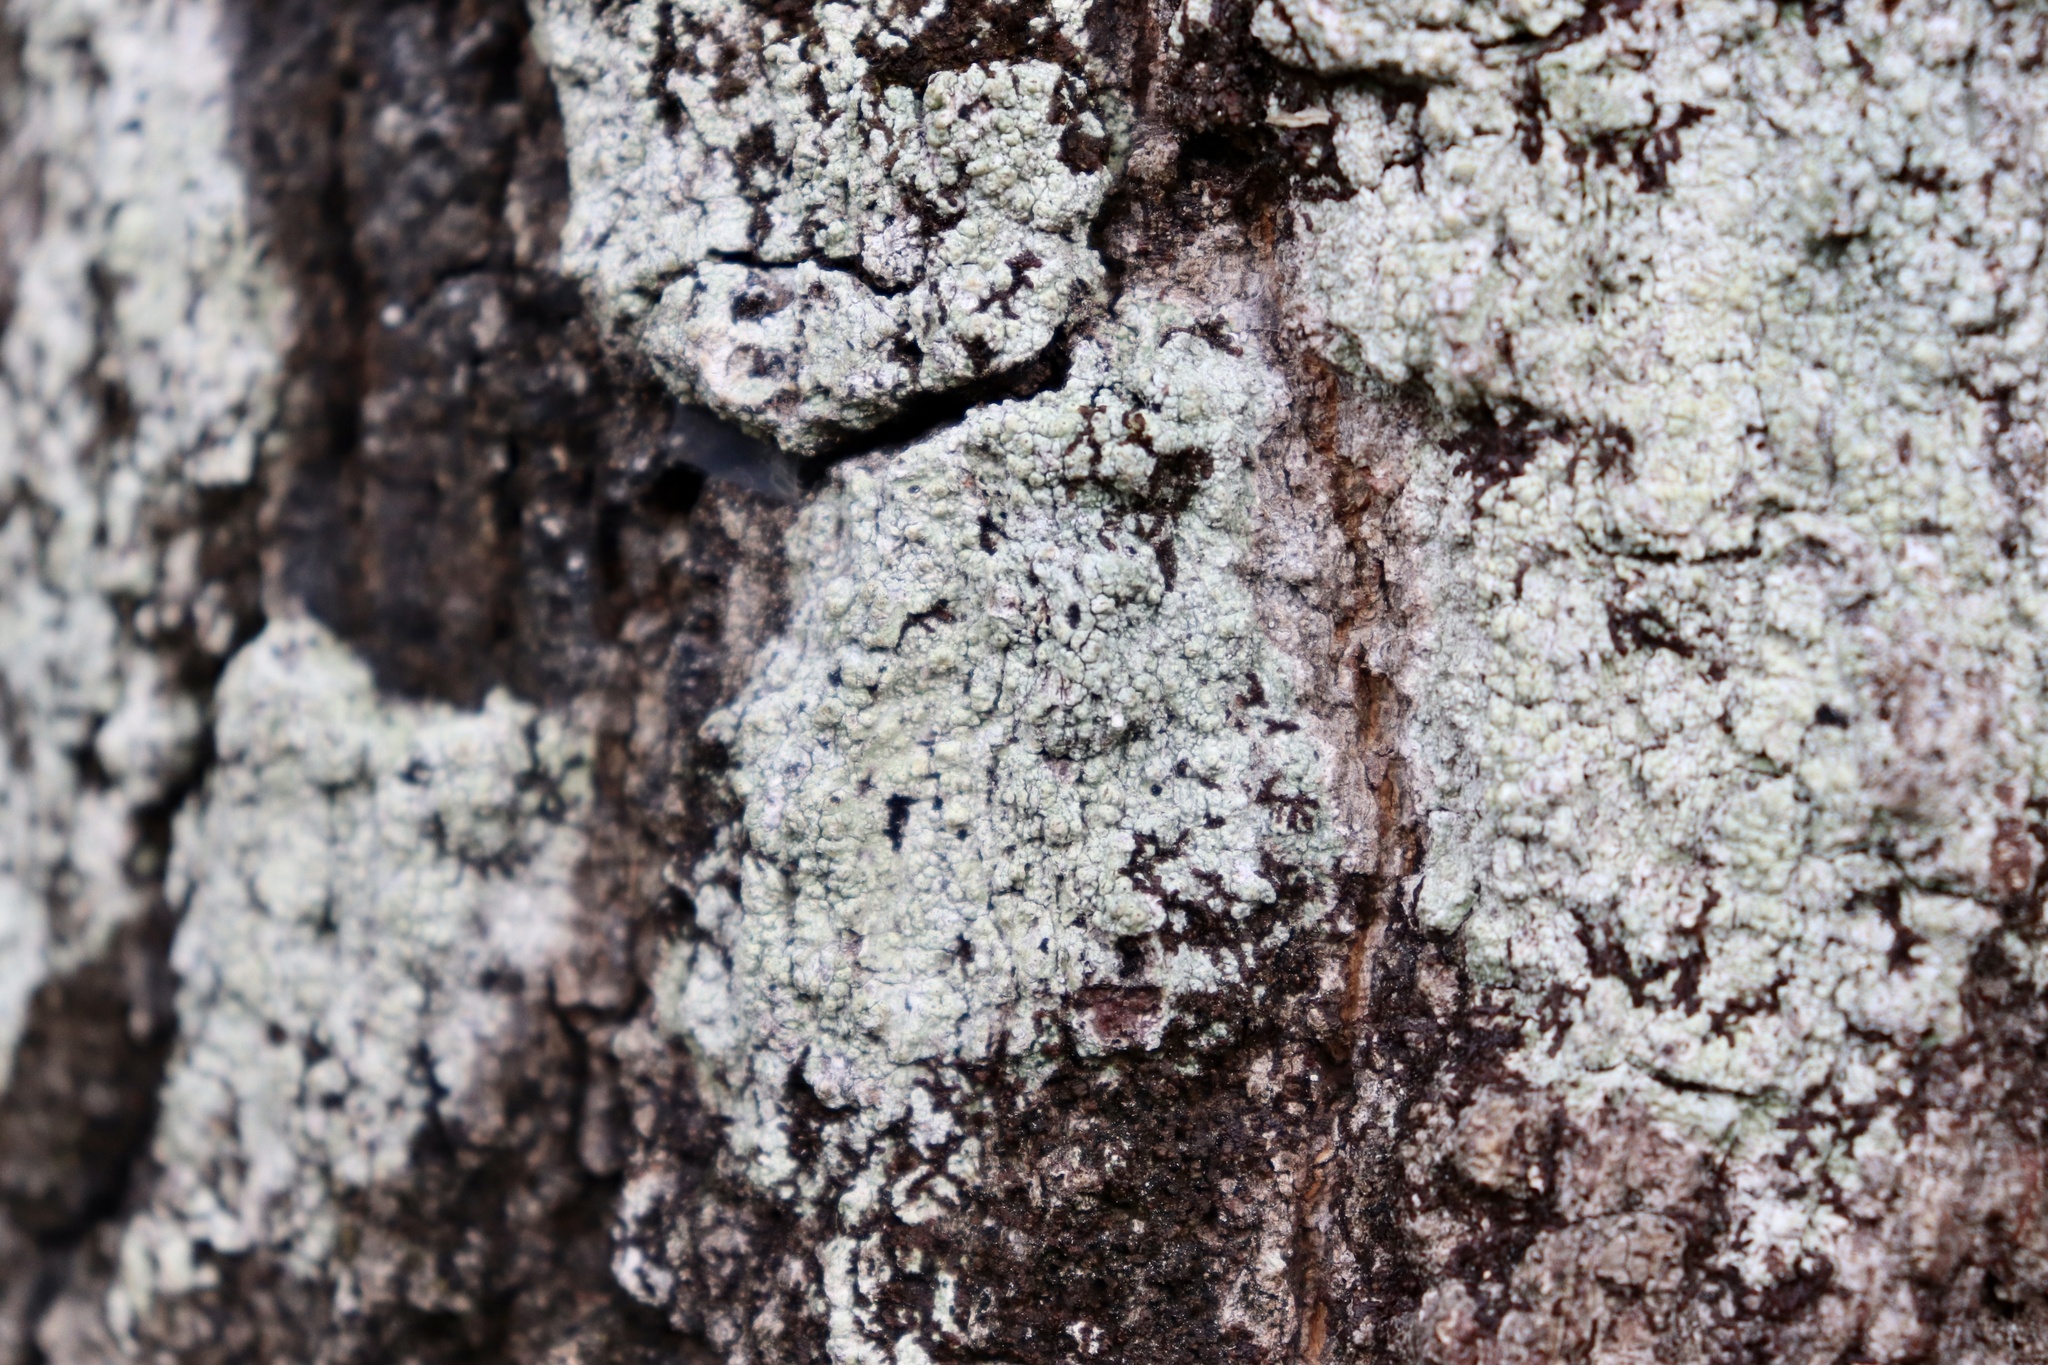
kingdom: Fungi
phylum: Ascomycota
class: Lecanoromycetes
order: Pertusariales
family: Pertusariaceae
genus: Pertusaria
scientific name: Pertusaria ostiolata
